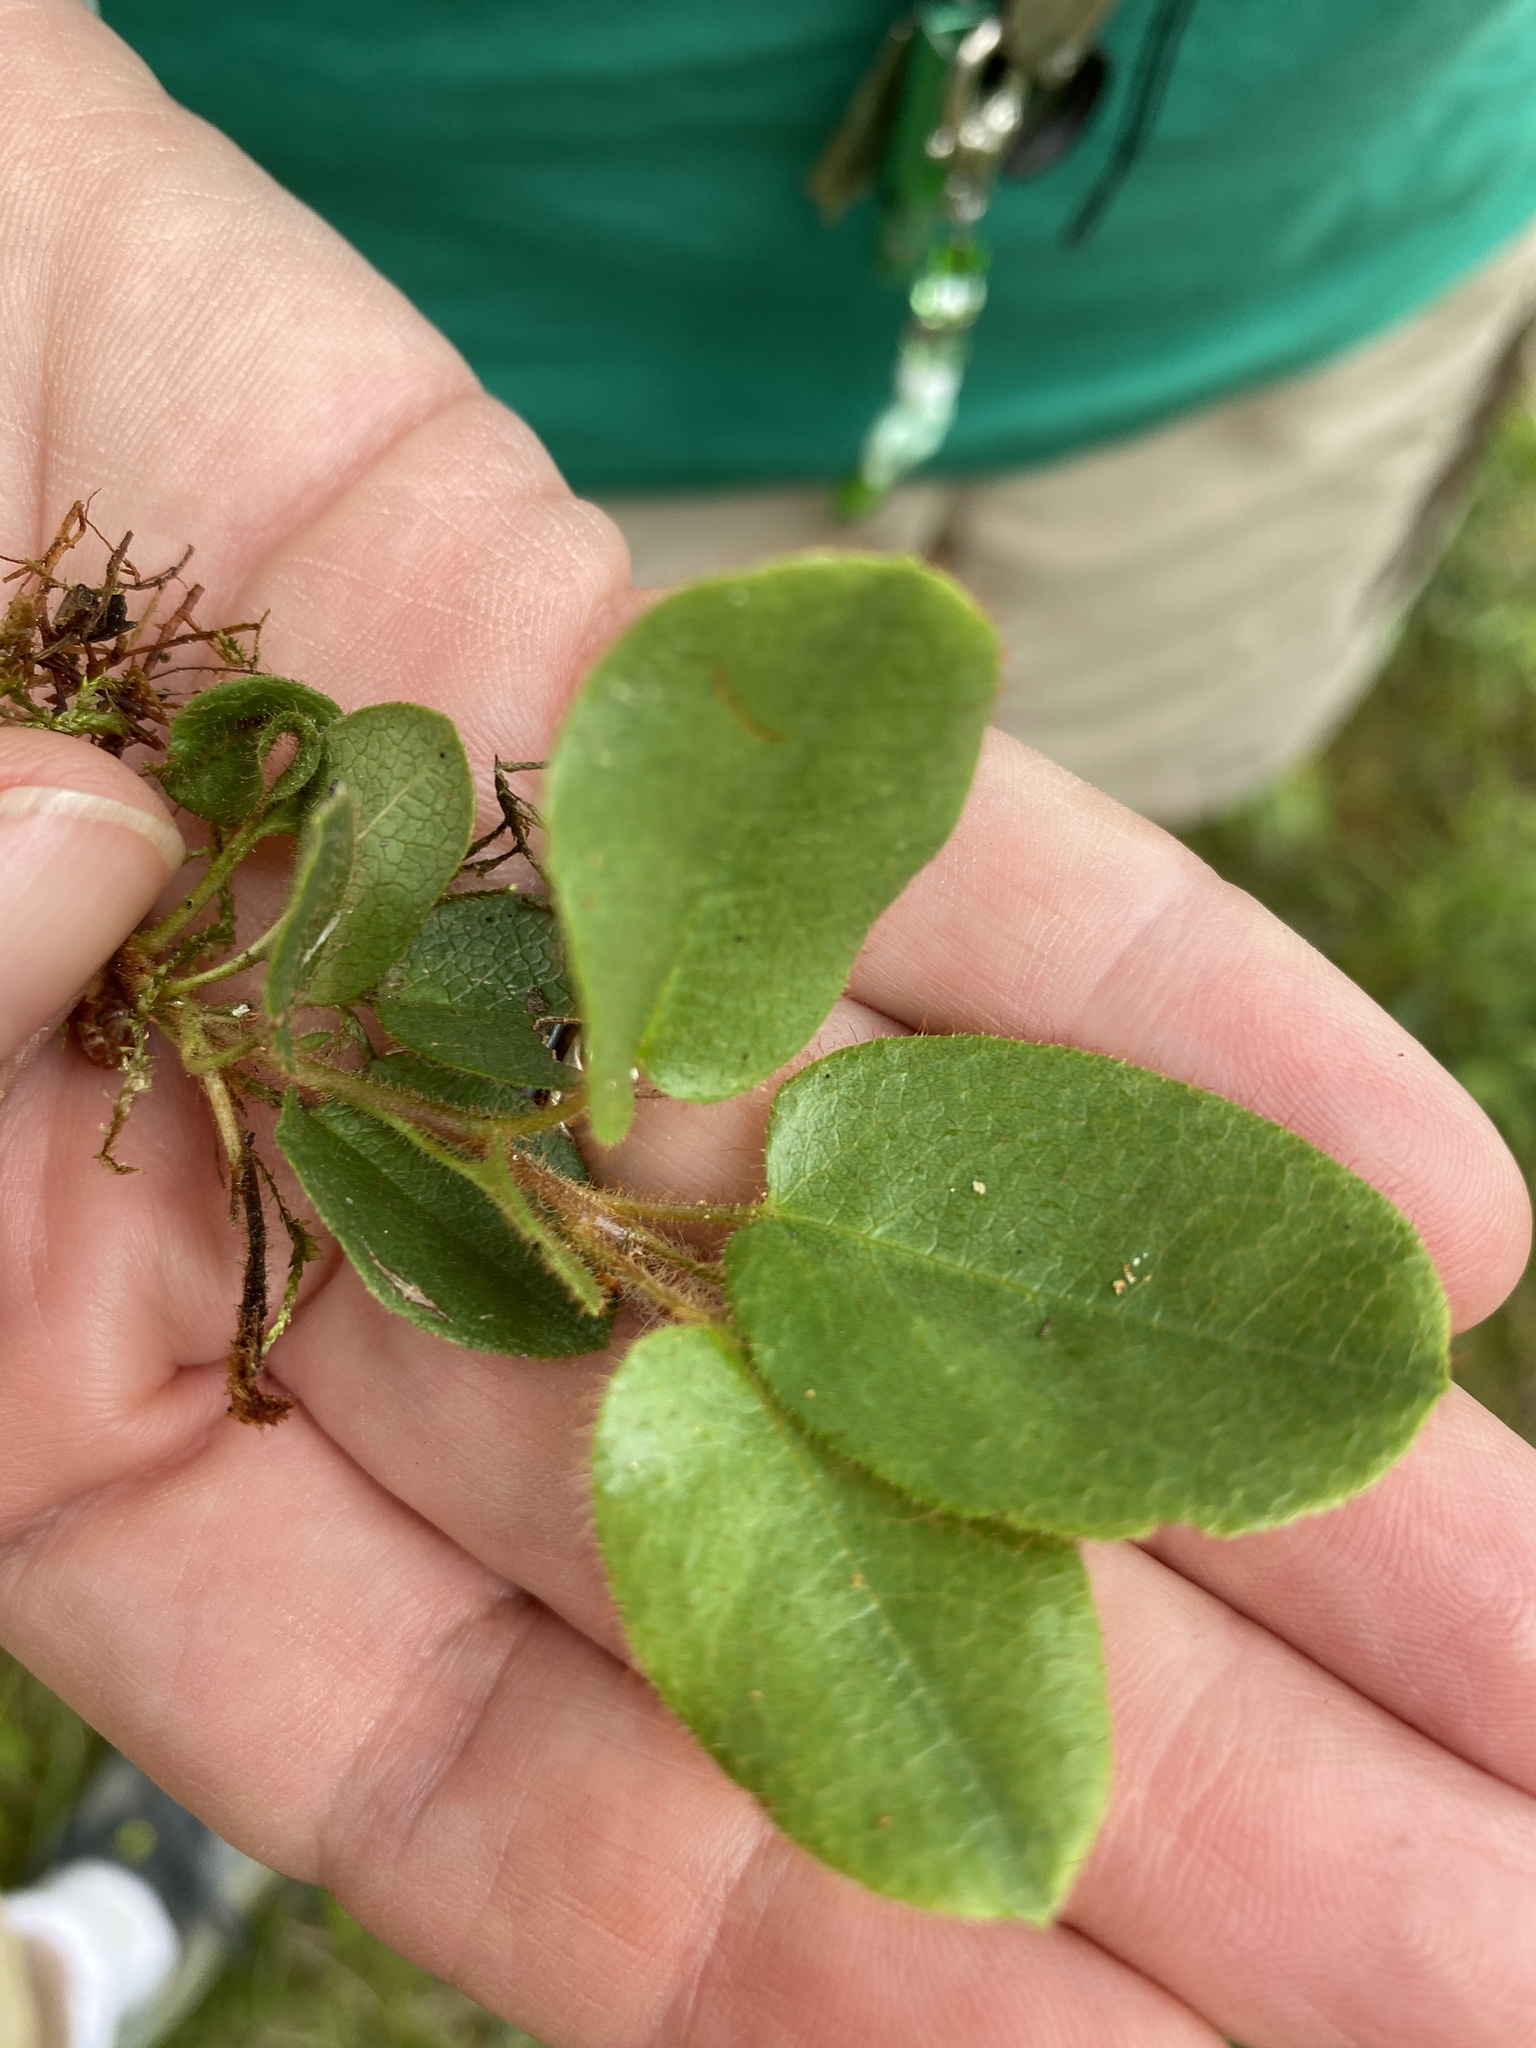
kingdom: Plantae
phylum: Tracheophyta
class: Magnoliopsida
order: Ericales
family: Ericaceae
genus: Epigaea
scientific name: Epigaea repens
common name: Gravelroot
